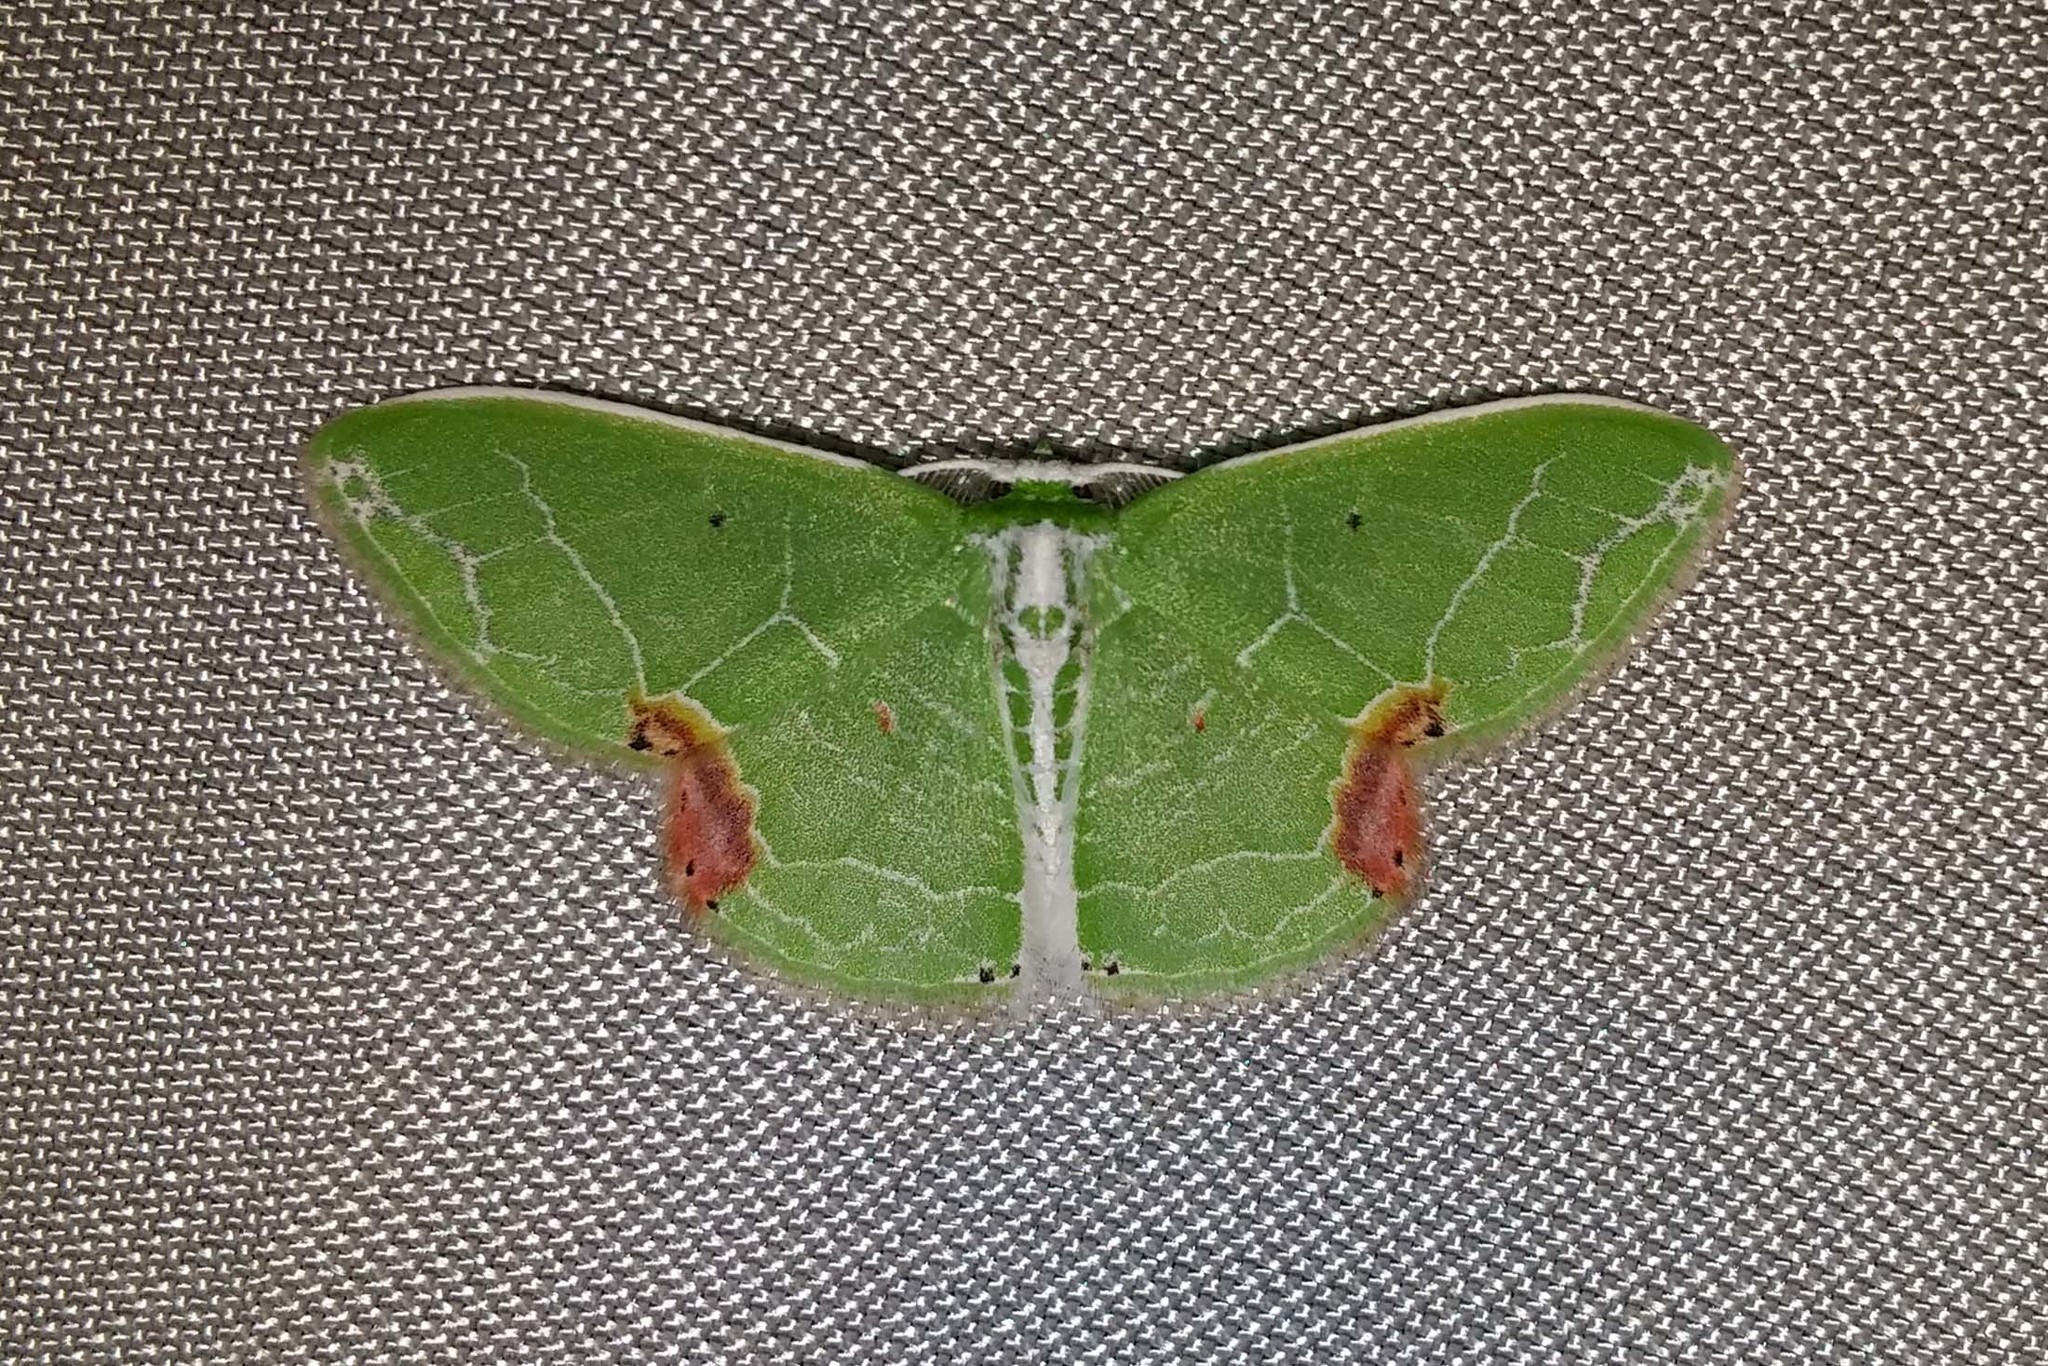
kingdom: Animalia
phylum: Arthropoda
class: Insecta
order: Lepidoptera
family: Geometridae
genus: Protuliocnemis
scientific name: Protuliocnemis biplagiata
